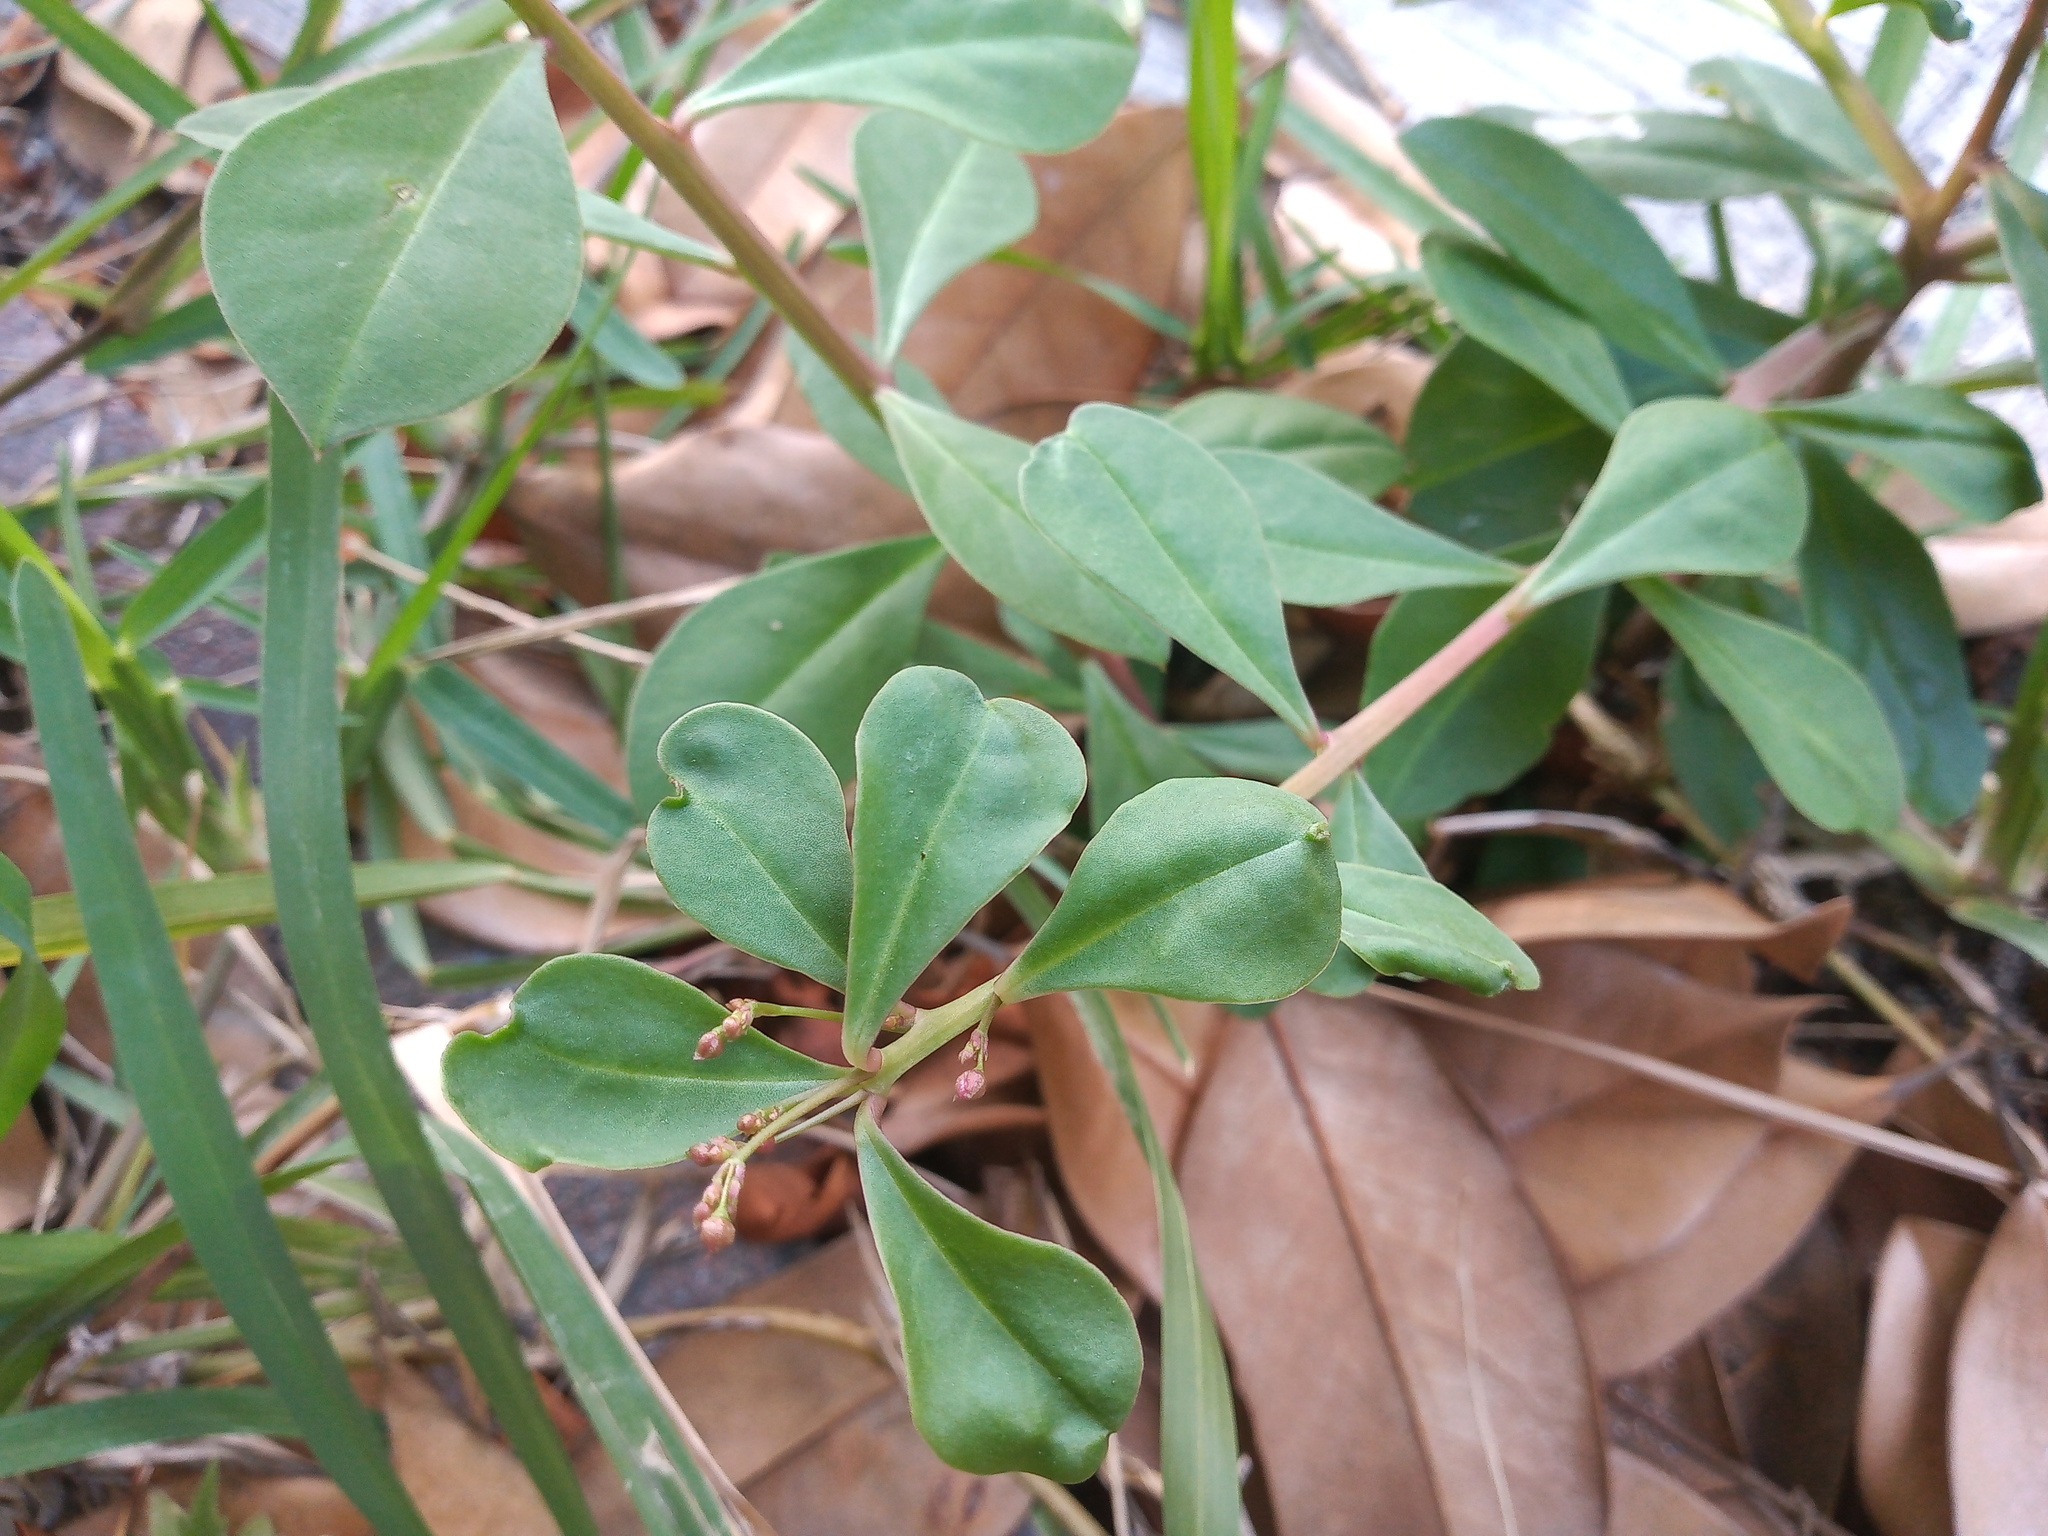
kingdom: Plantae
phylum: Tracheophyta
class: Magnoliopsida
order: Caryophyllales
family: Talinaceae
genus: Talinum
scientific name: Talinum paniculatum
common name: Jewels of opar
